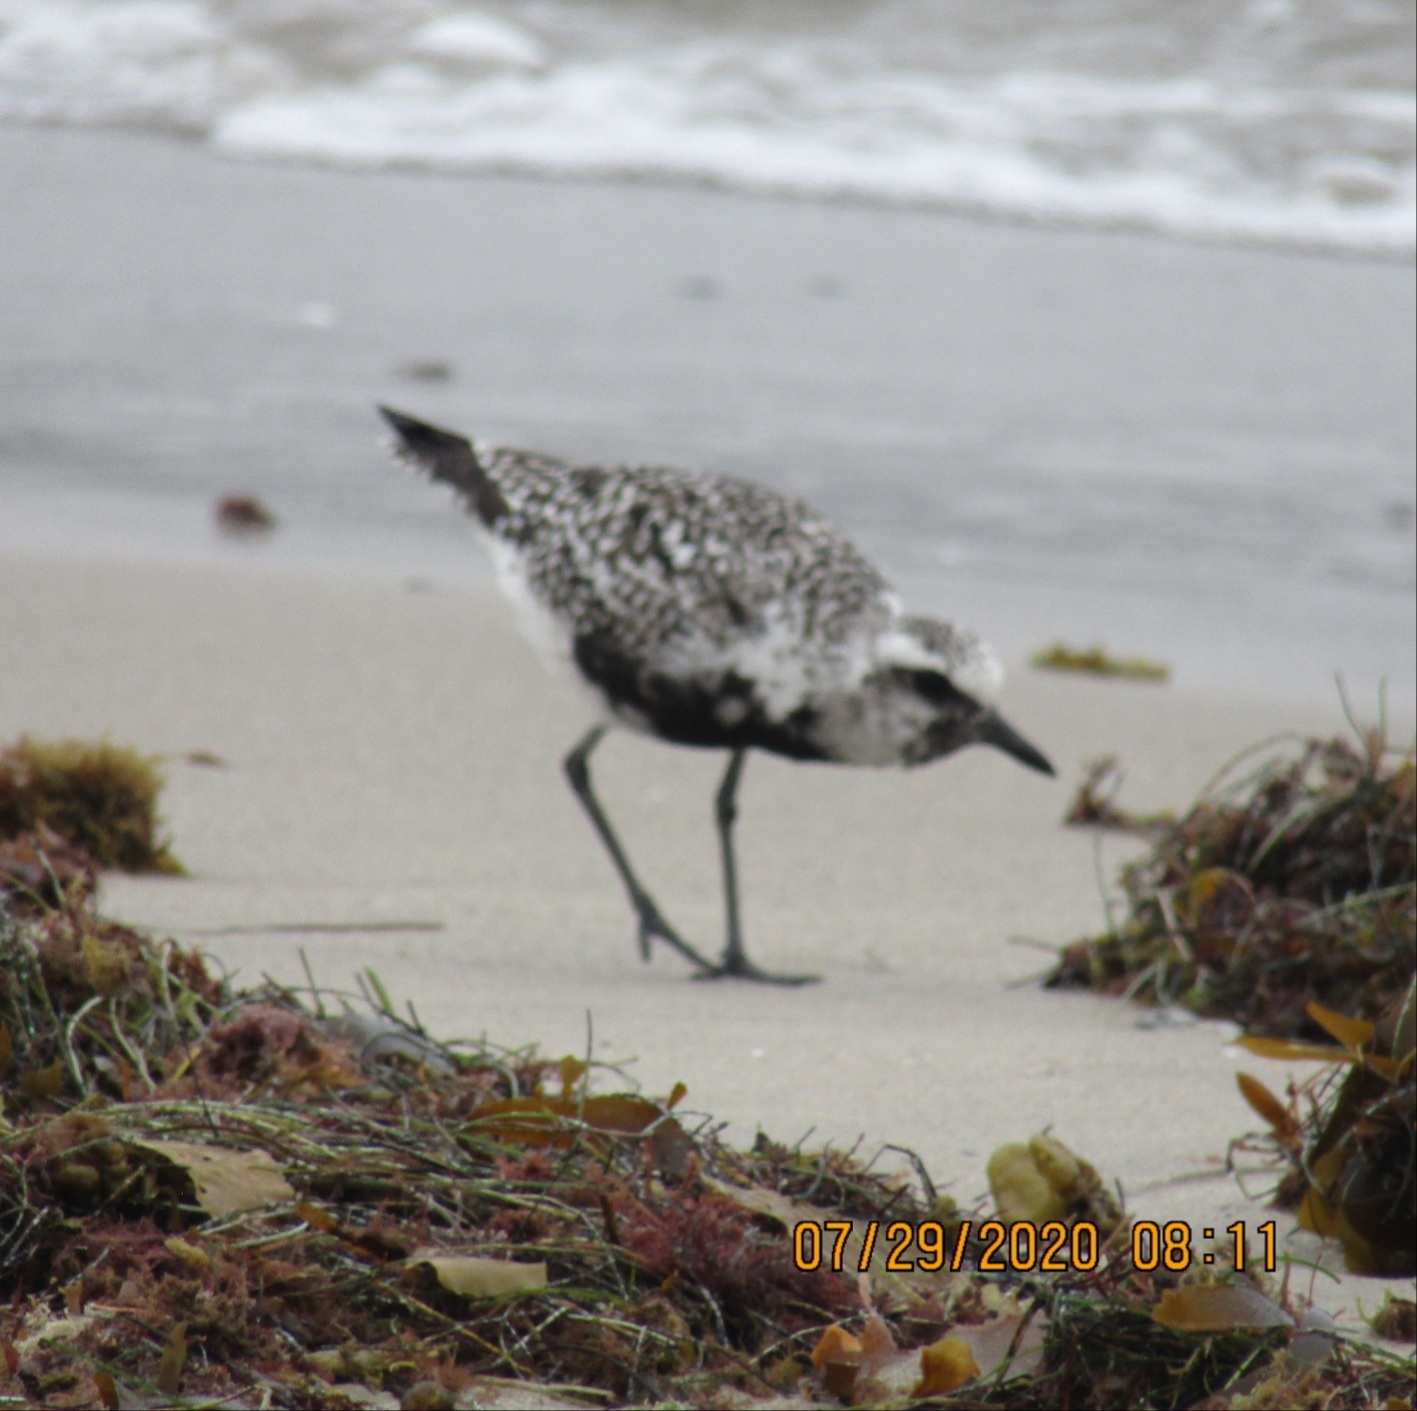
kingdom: Animalia
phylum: Chordata
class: Aves
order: Charadriiformes
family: Charadriidae
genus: Pluvialis
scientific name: Pluvialis squatarola
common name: Grey plover
